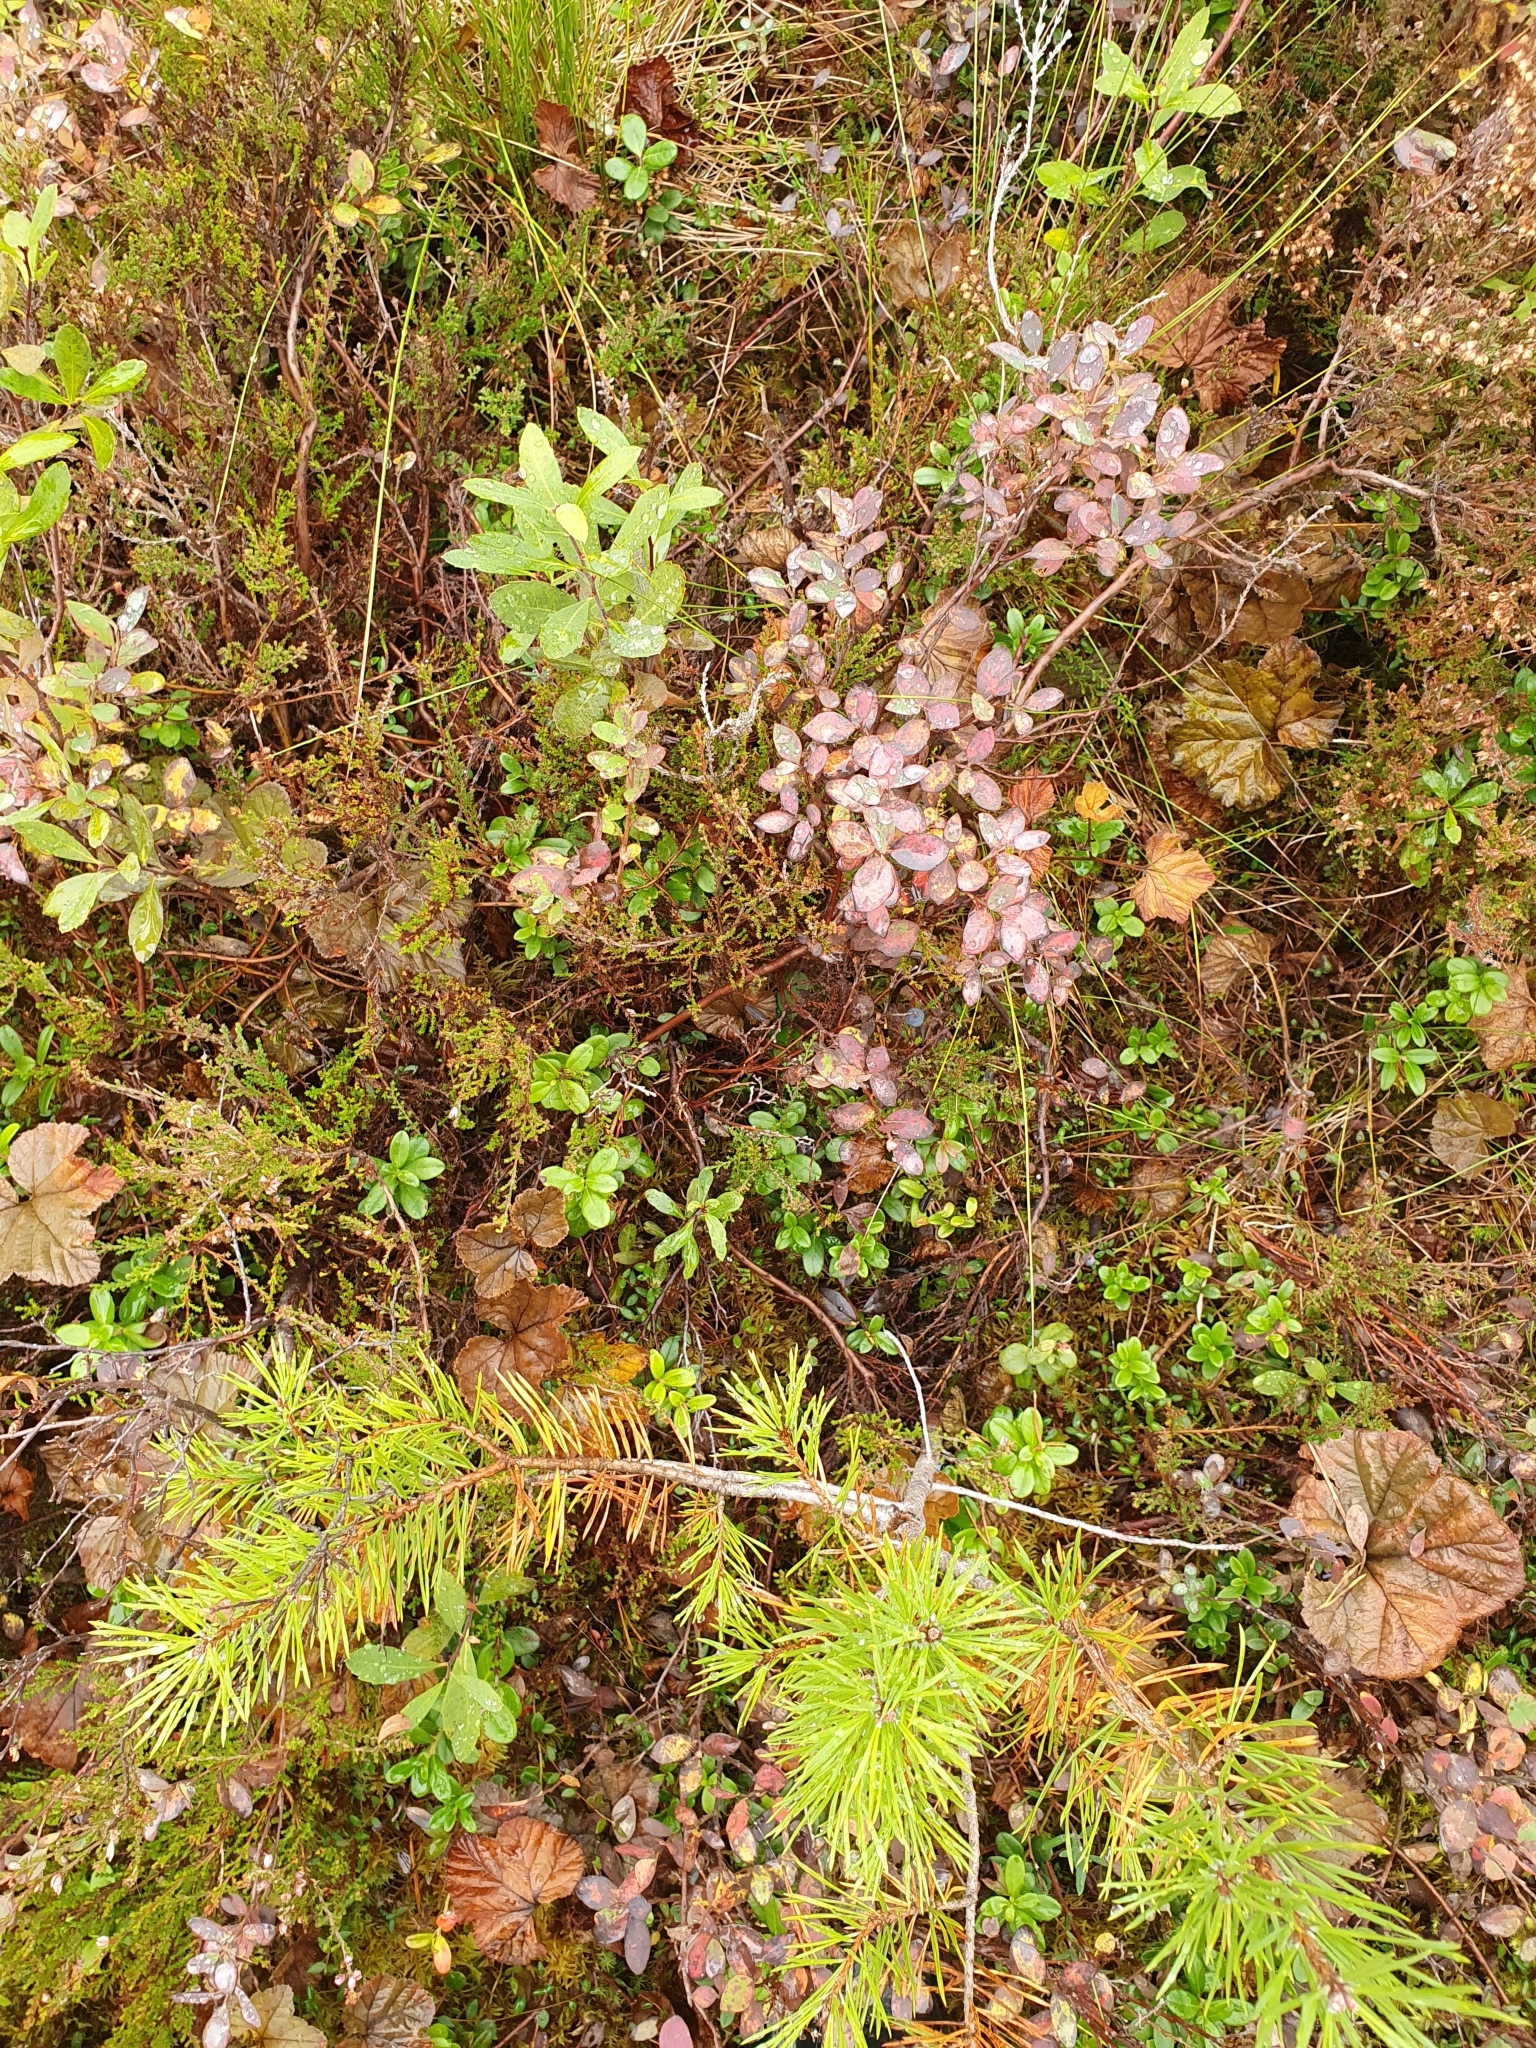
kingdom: Plantae
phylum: Tracheophyta
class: Magnoliopsida
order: Ericales
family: Ericaceae
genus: Vaccinium
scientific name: Vaccinium uliginosum
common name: Bog bilberry
